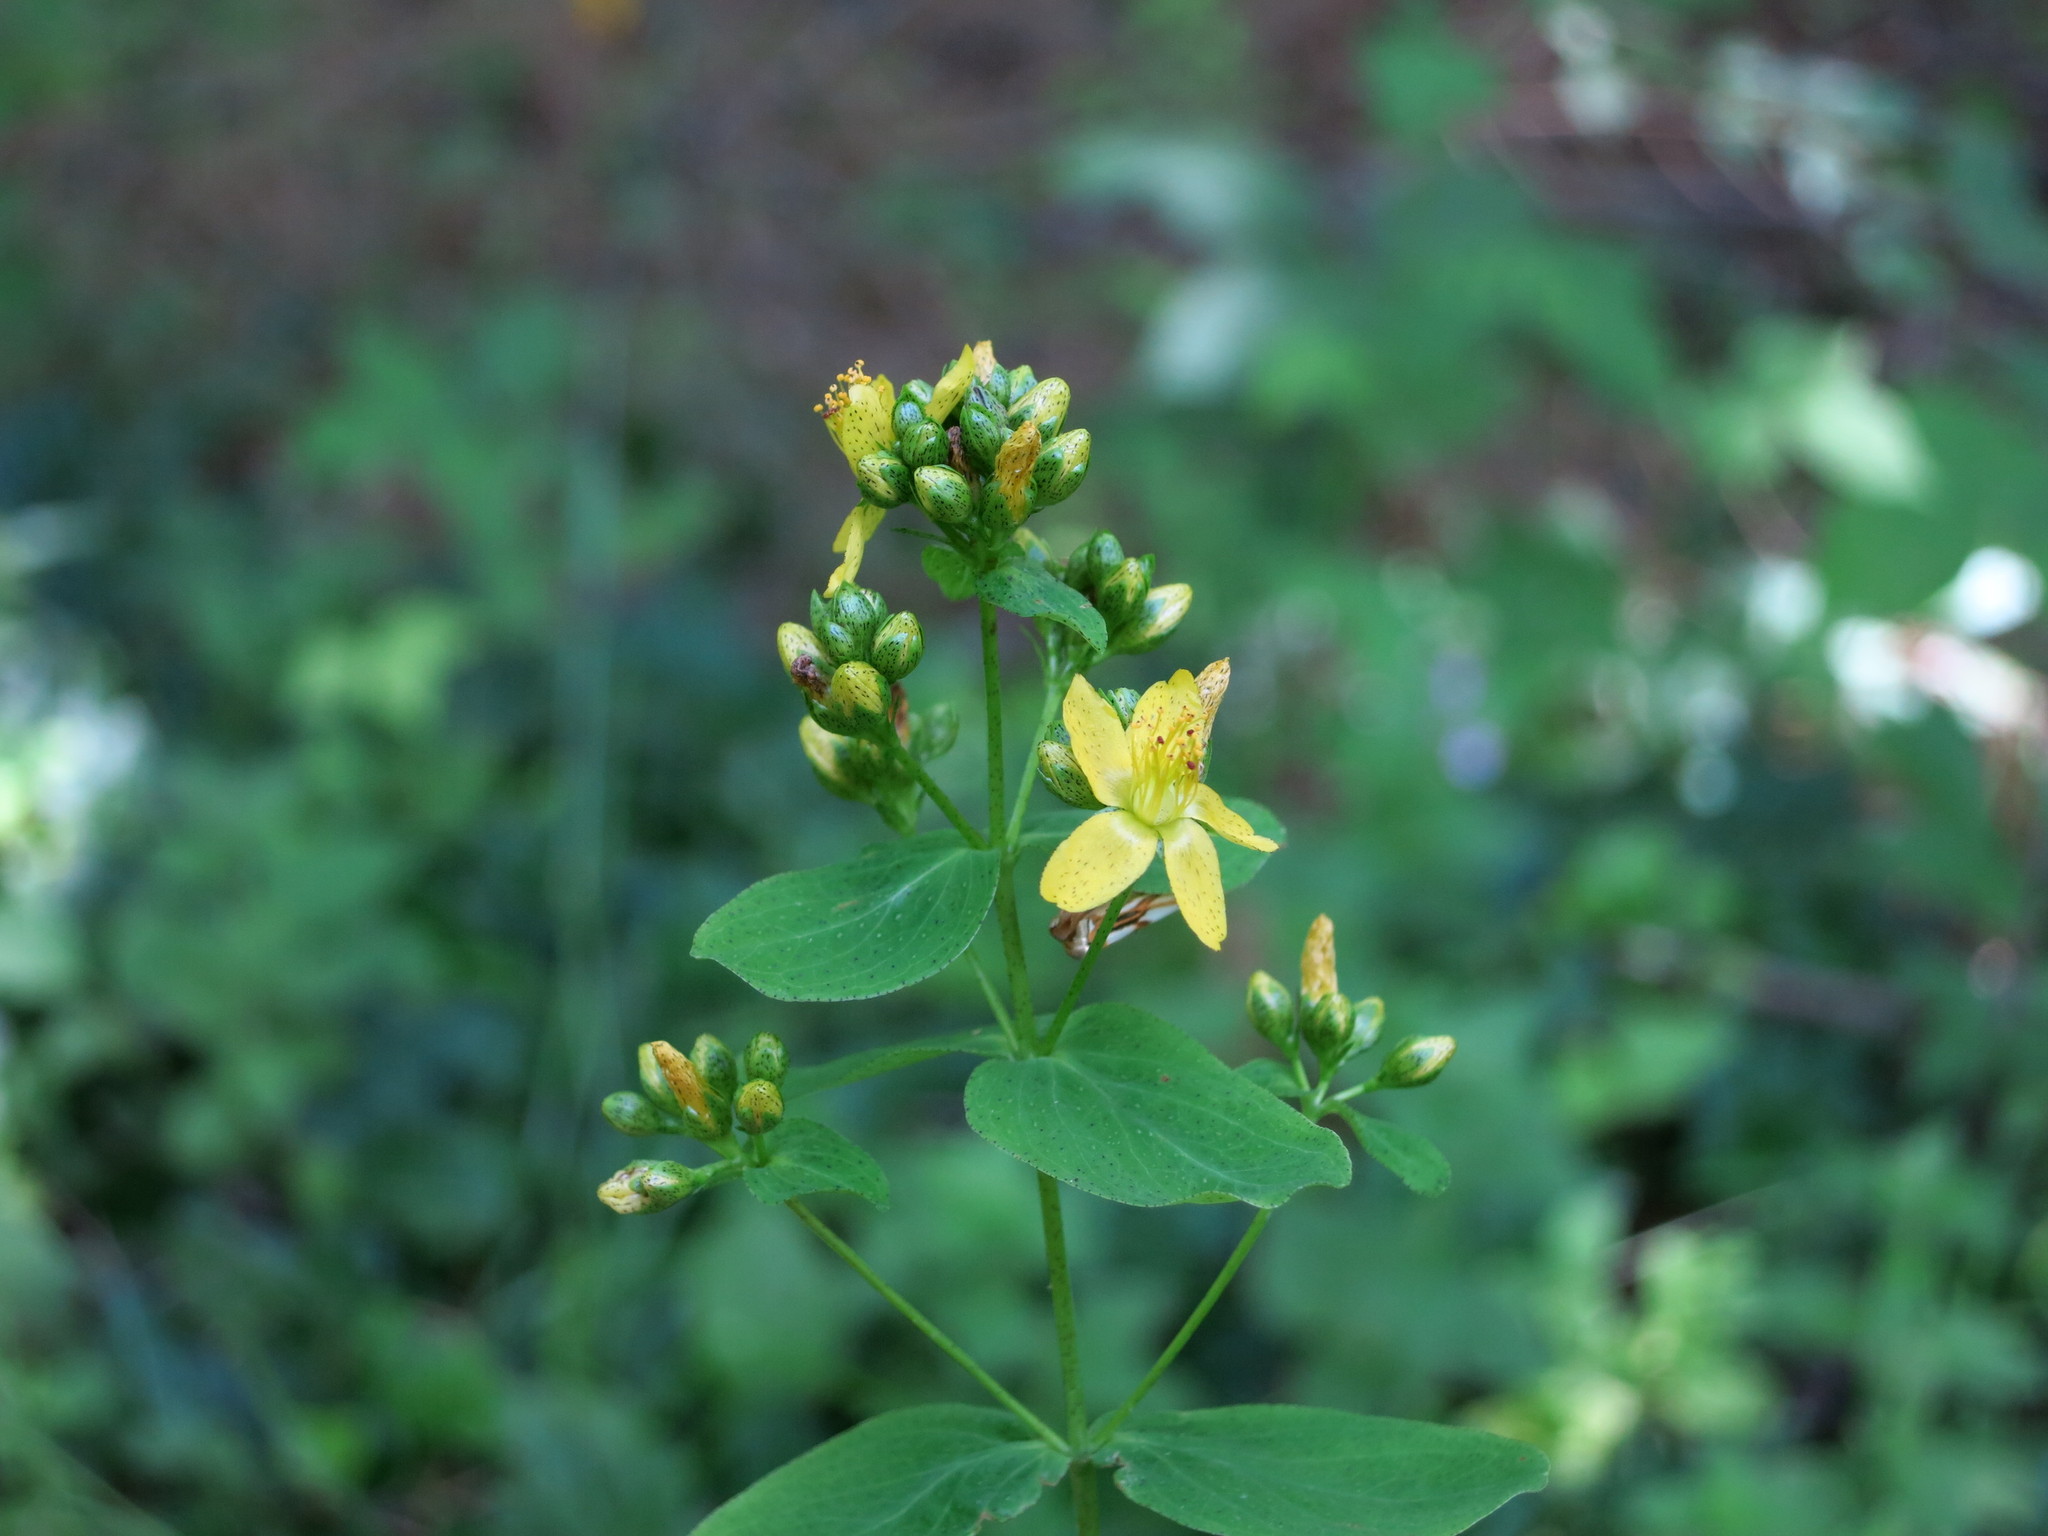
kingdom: Plantae
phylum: Tracheophyta
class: Magnoliopsida
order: Malpighiales
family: Hypericaceae
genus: Hypericum
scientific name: Hypericum punctatum
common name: Spotted st. john's-wort
